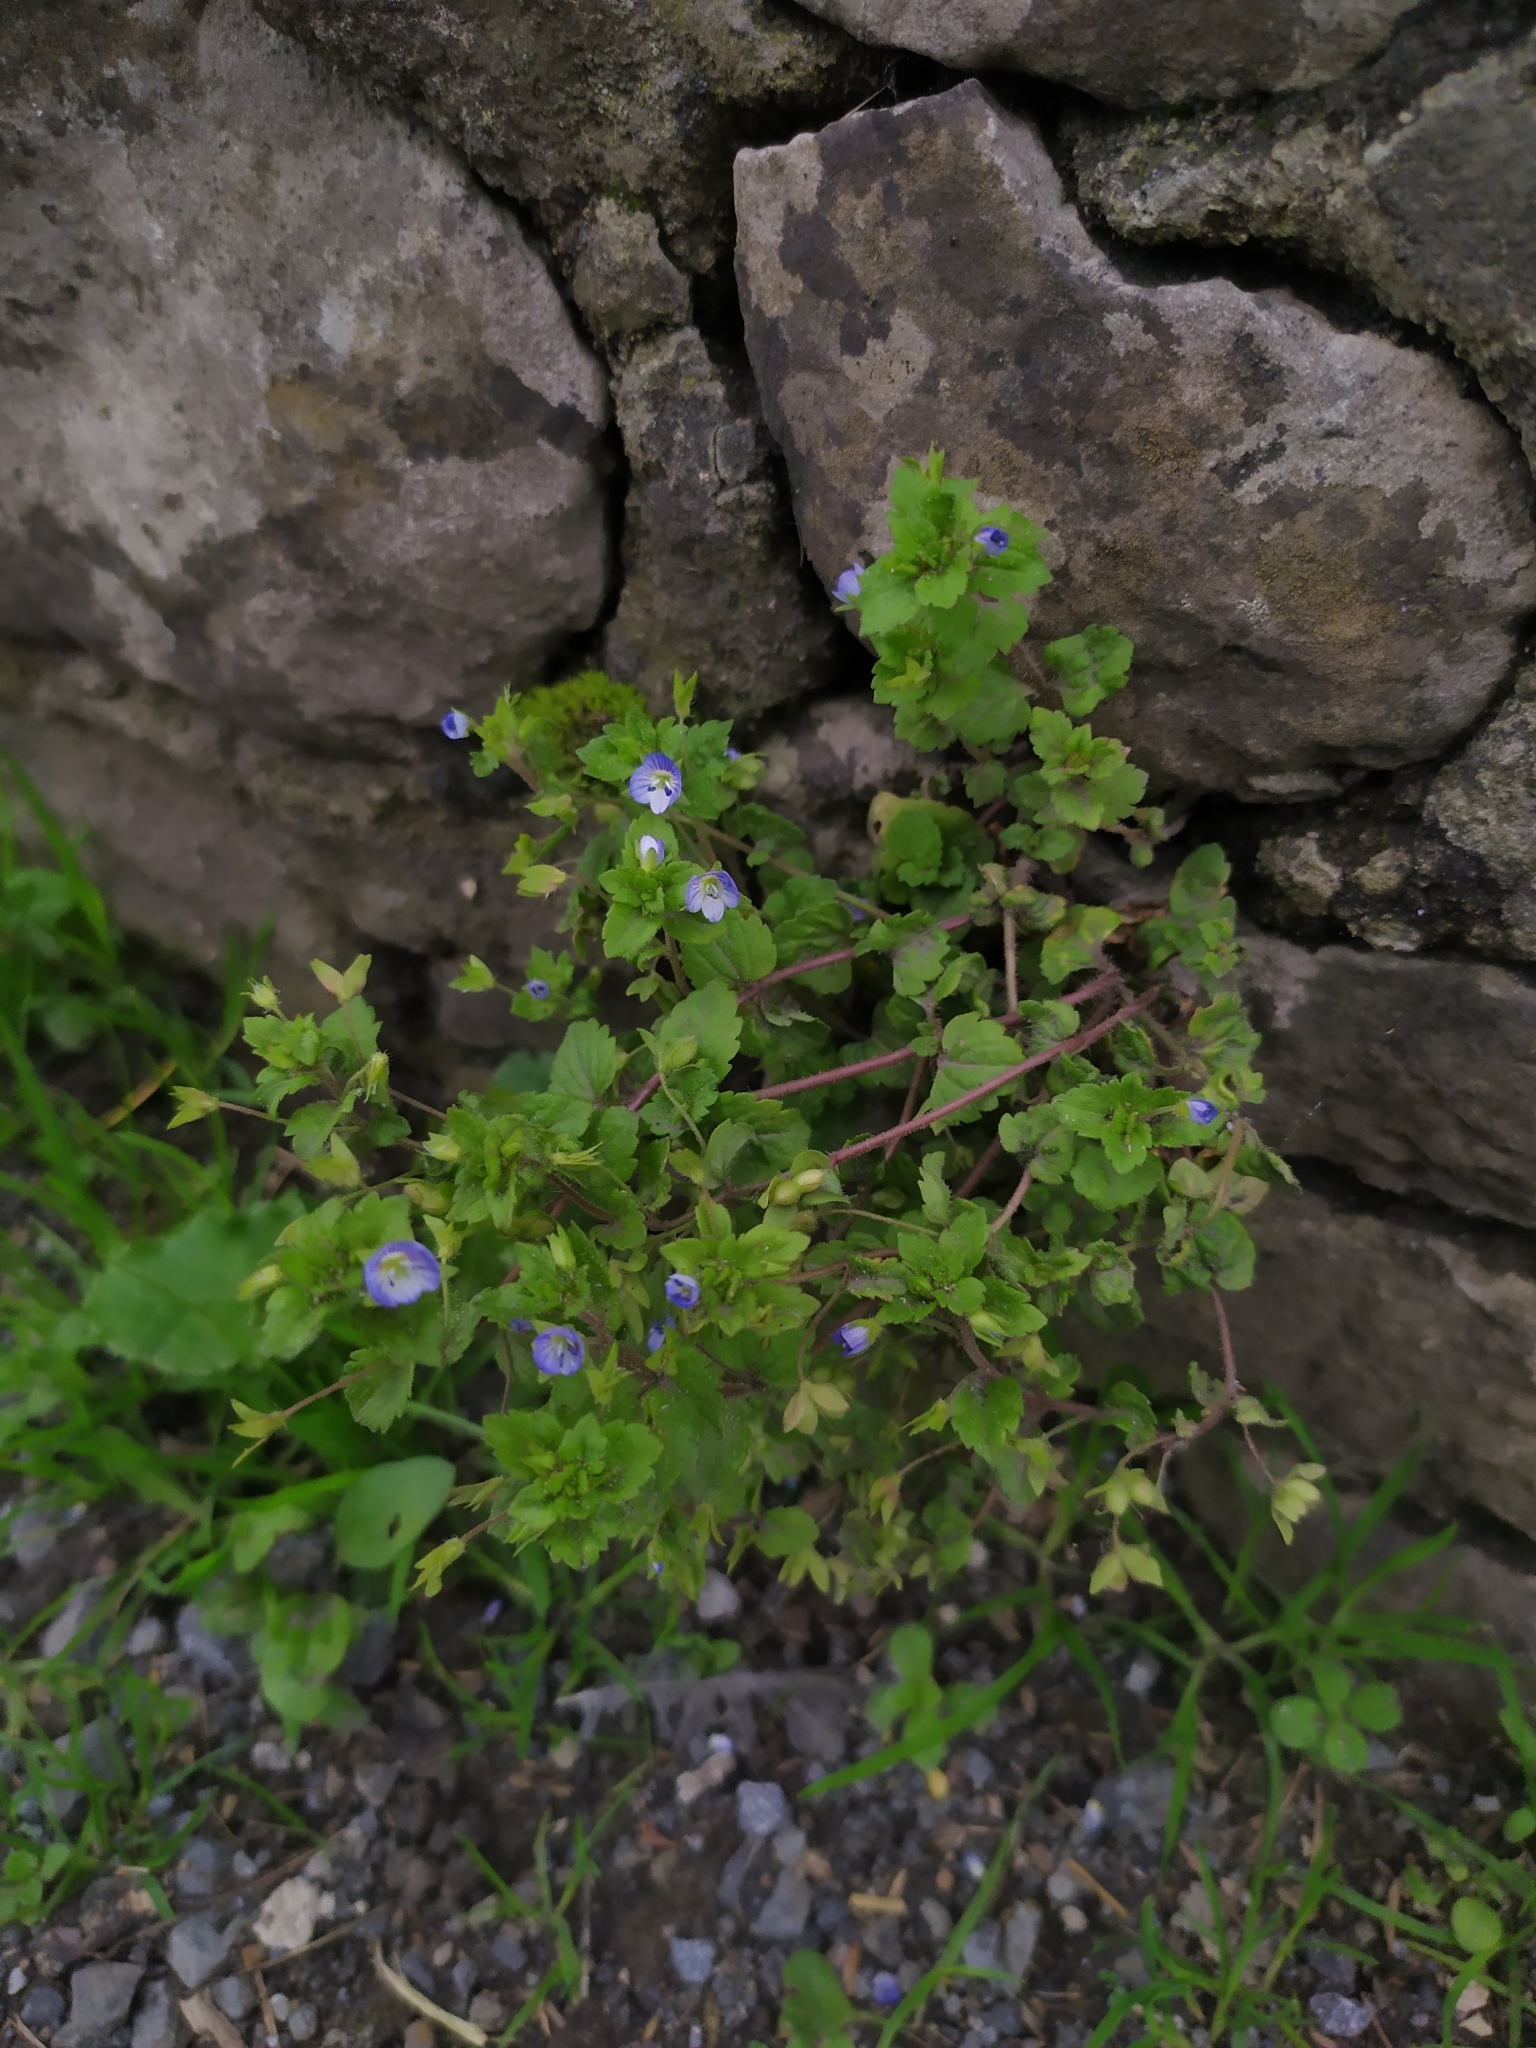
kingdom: Plantae
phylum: Tracheophyta
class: Magnoliopsida
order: Lamiales
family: Plantaginaceae
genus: Veronica
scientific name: Veronica persica
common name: Common field-speedwell
